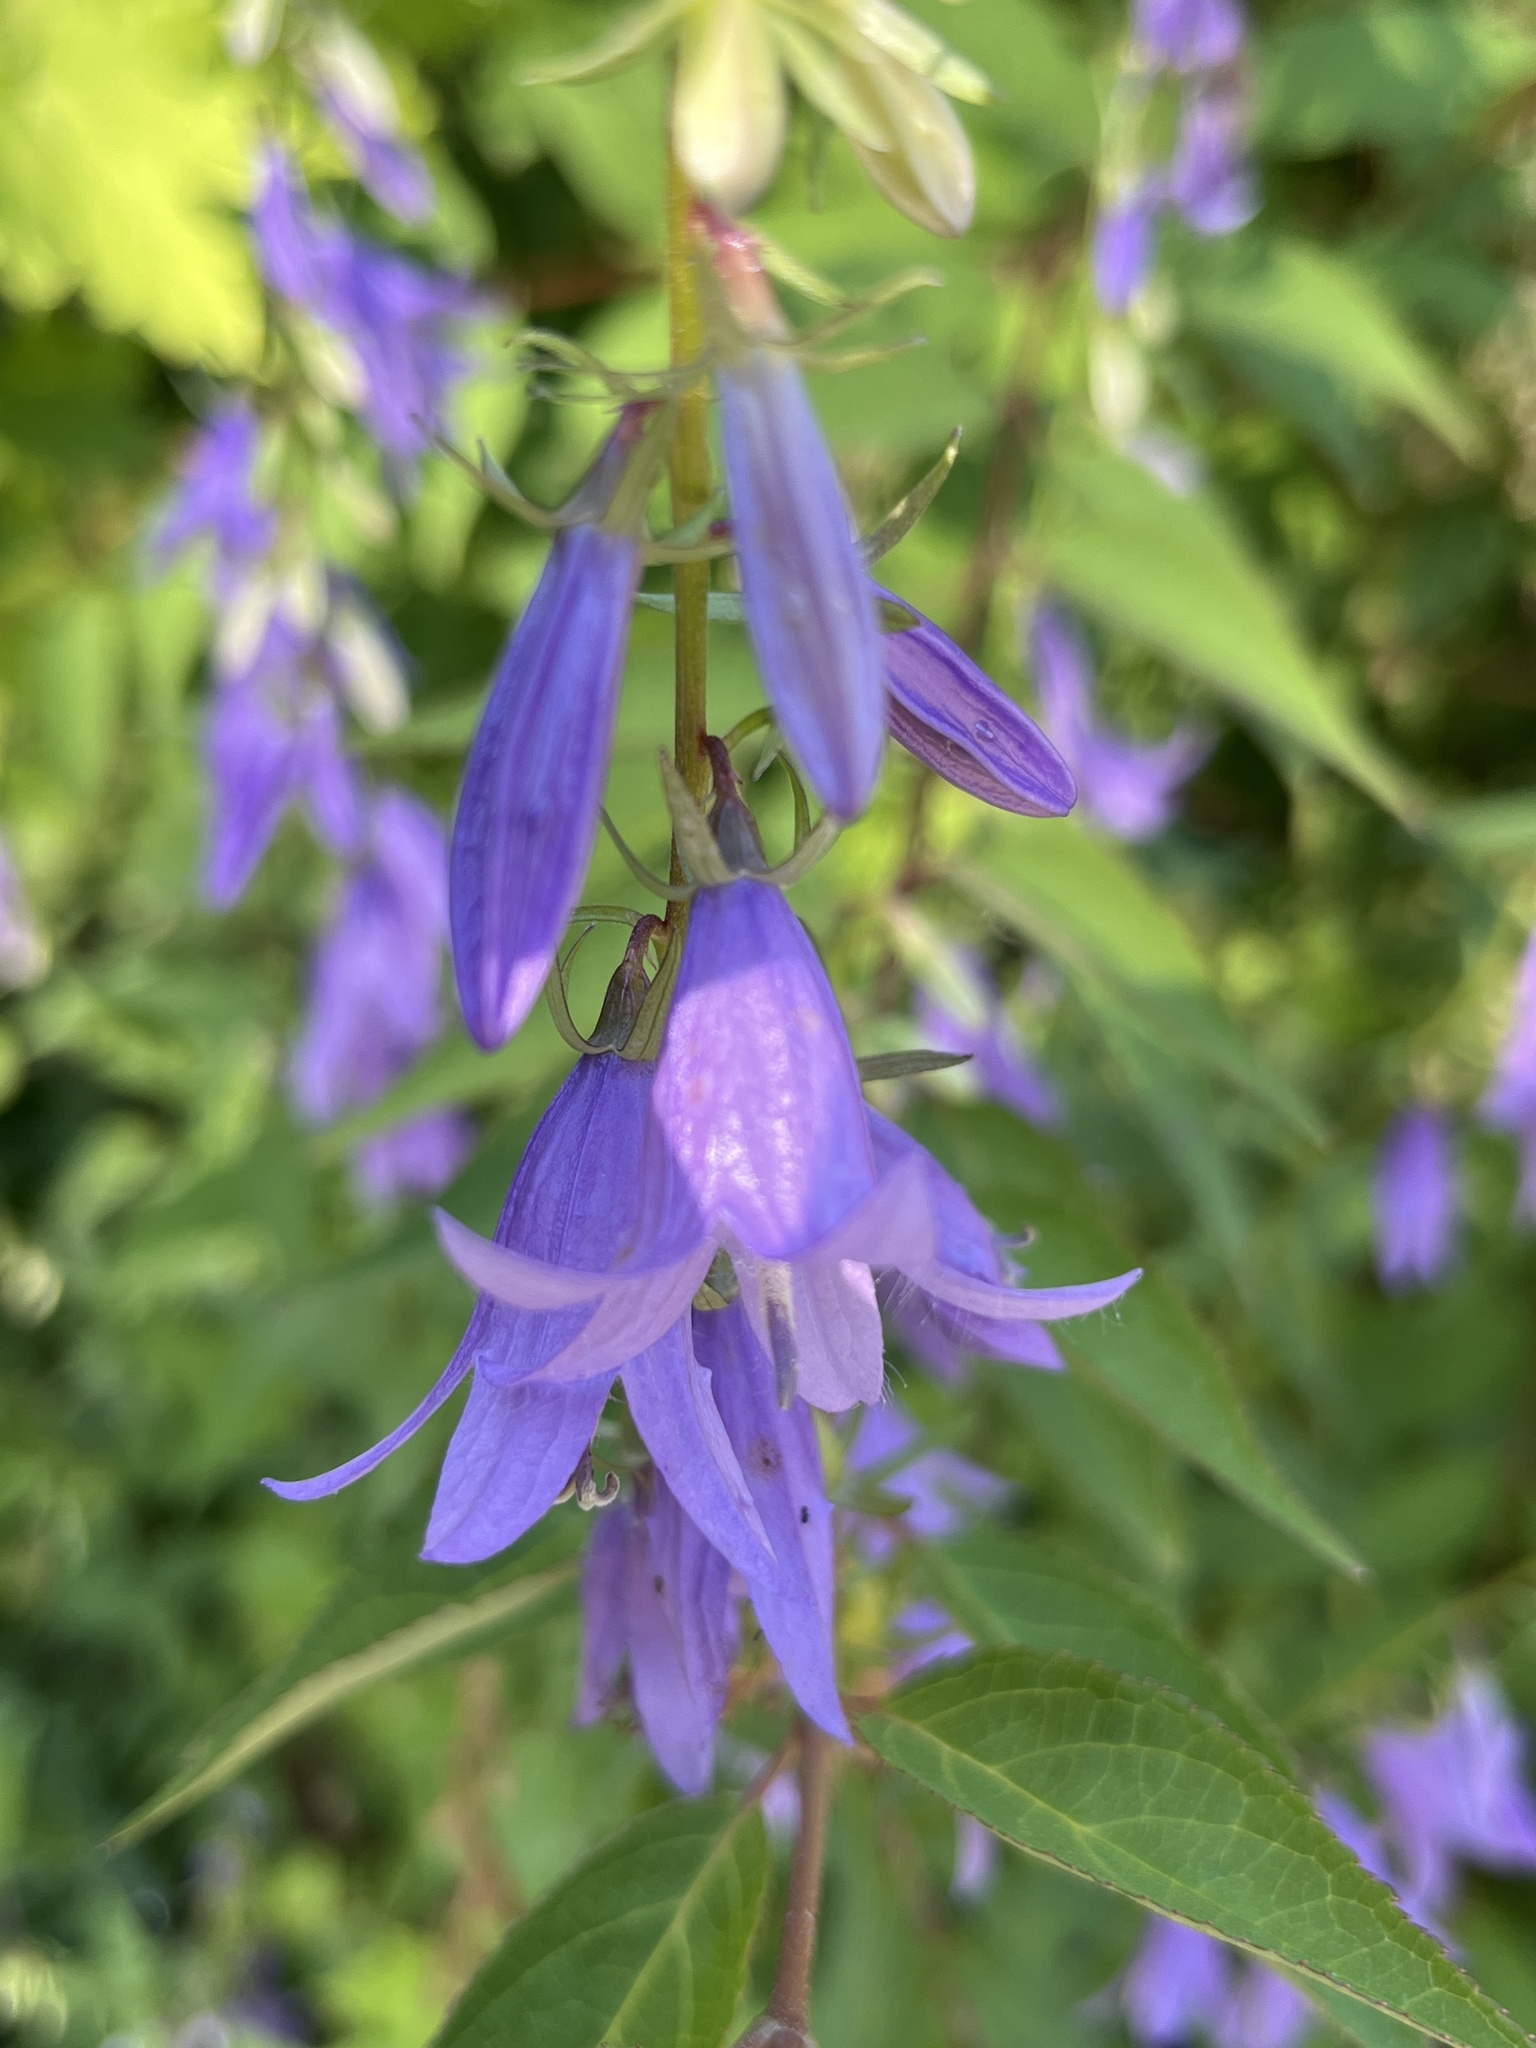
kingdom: Plantae
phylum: Tracheophyta
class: Magnoliopsida
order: Asterales
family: Campanulaceae
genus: Campanula
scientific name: Campanula rapunculoides
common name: Creeping bellflower
